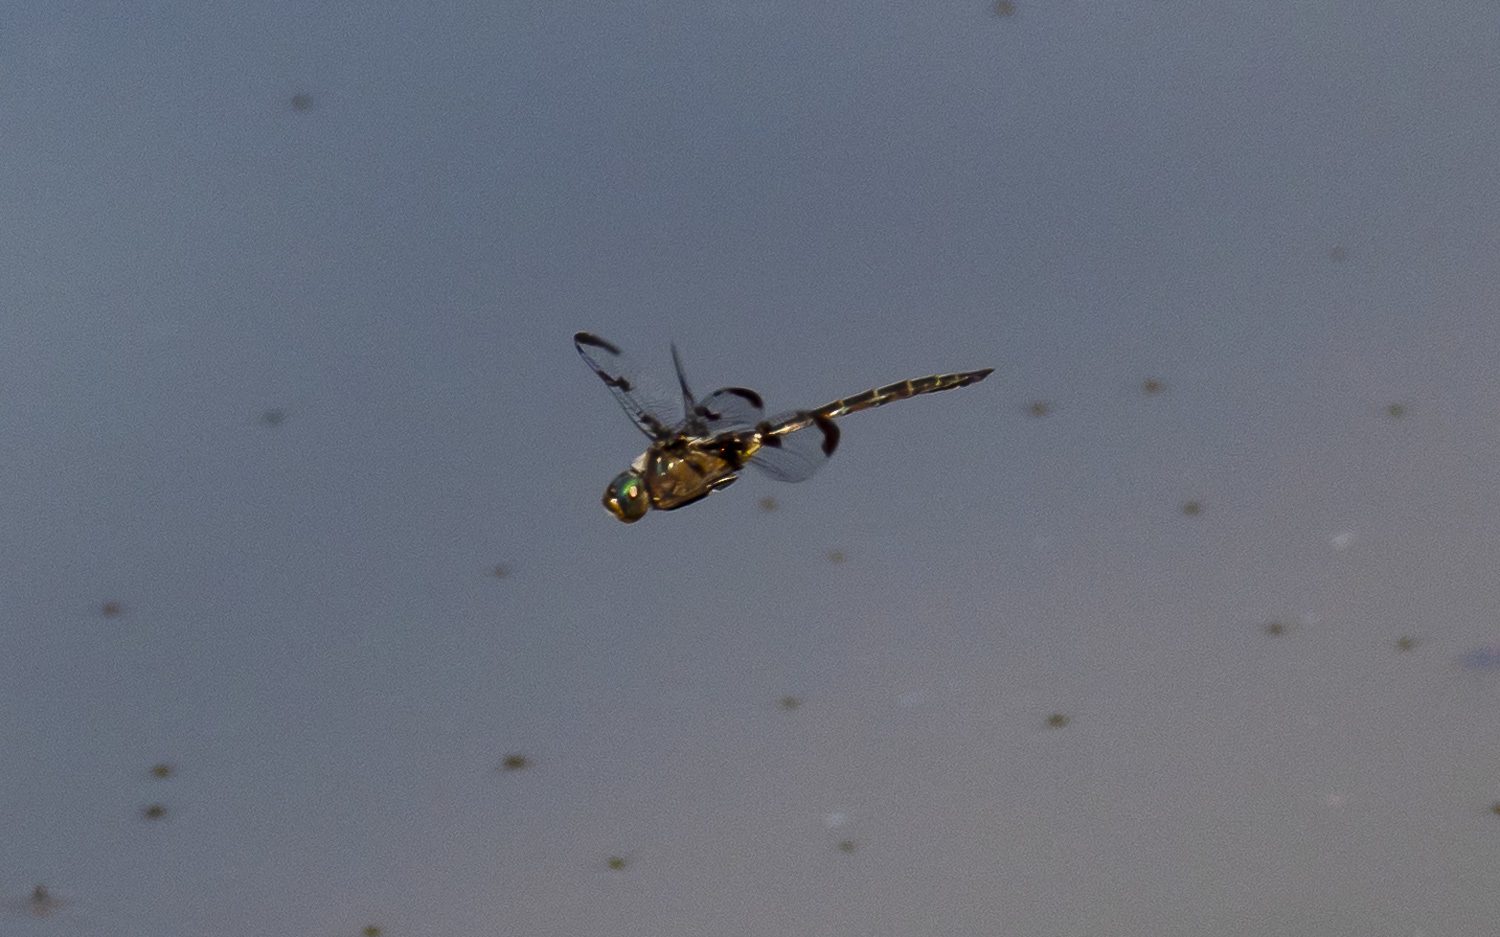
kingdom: Animalia
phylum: Arthropoda
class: Insecta
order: Odonata
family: Corduliidae
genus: Epitheca
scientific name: Epitheca princeps
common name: Prince baskettail
